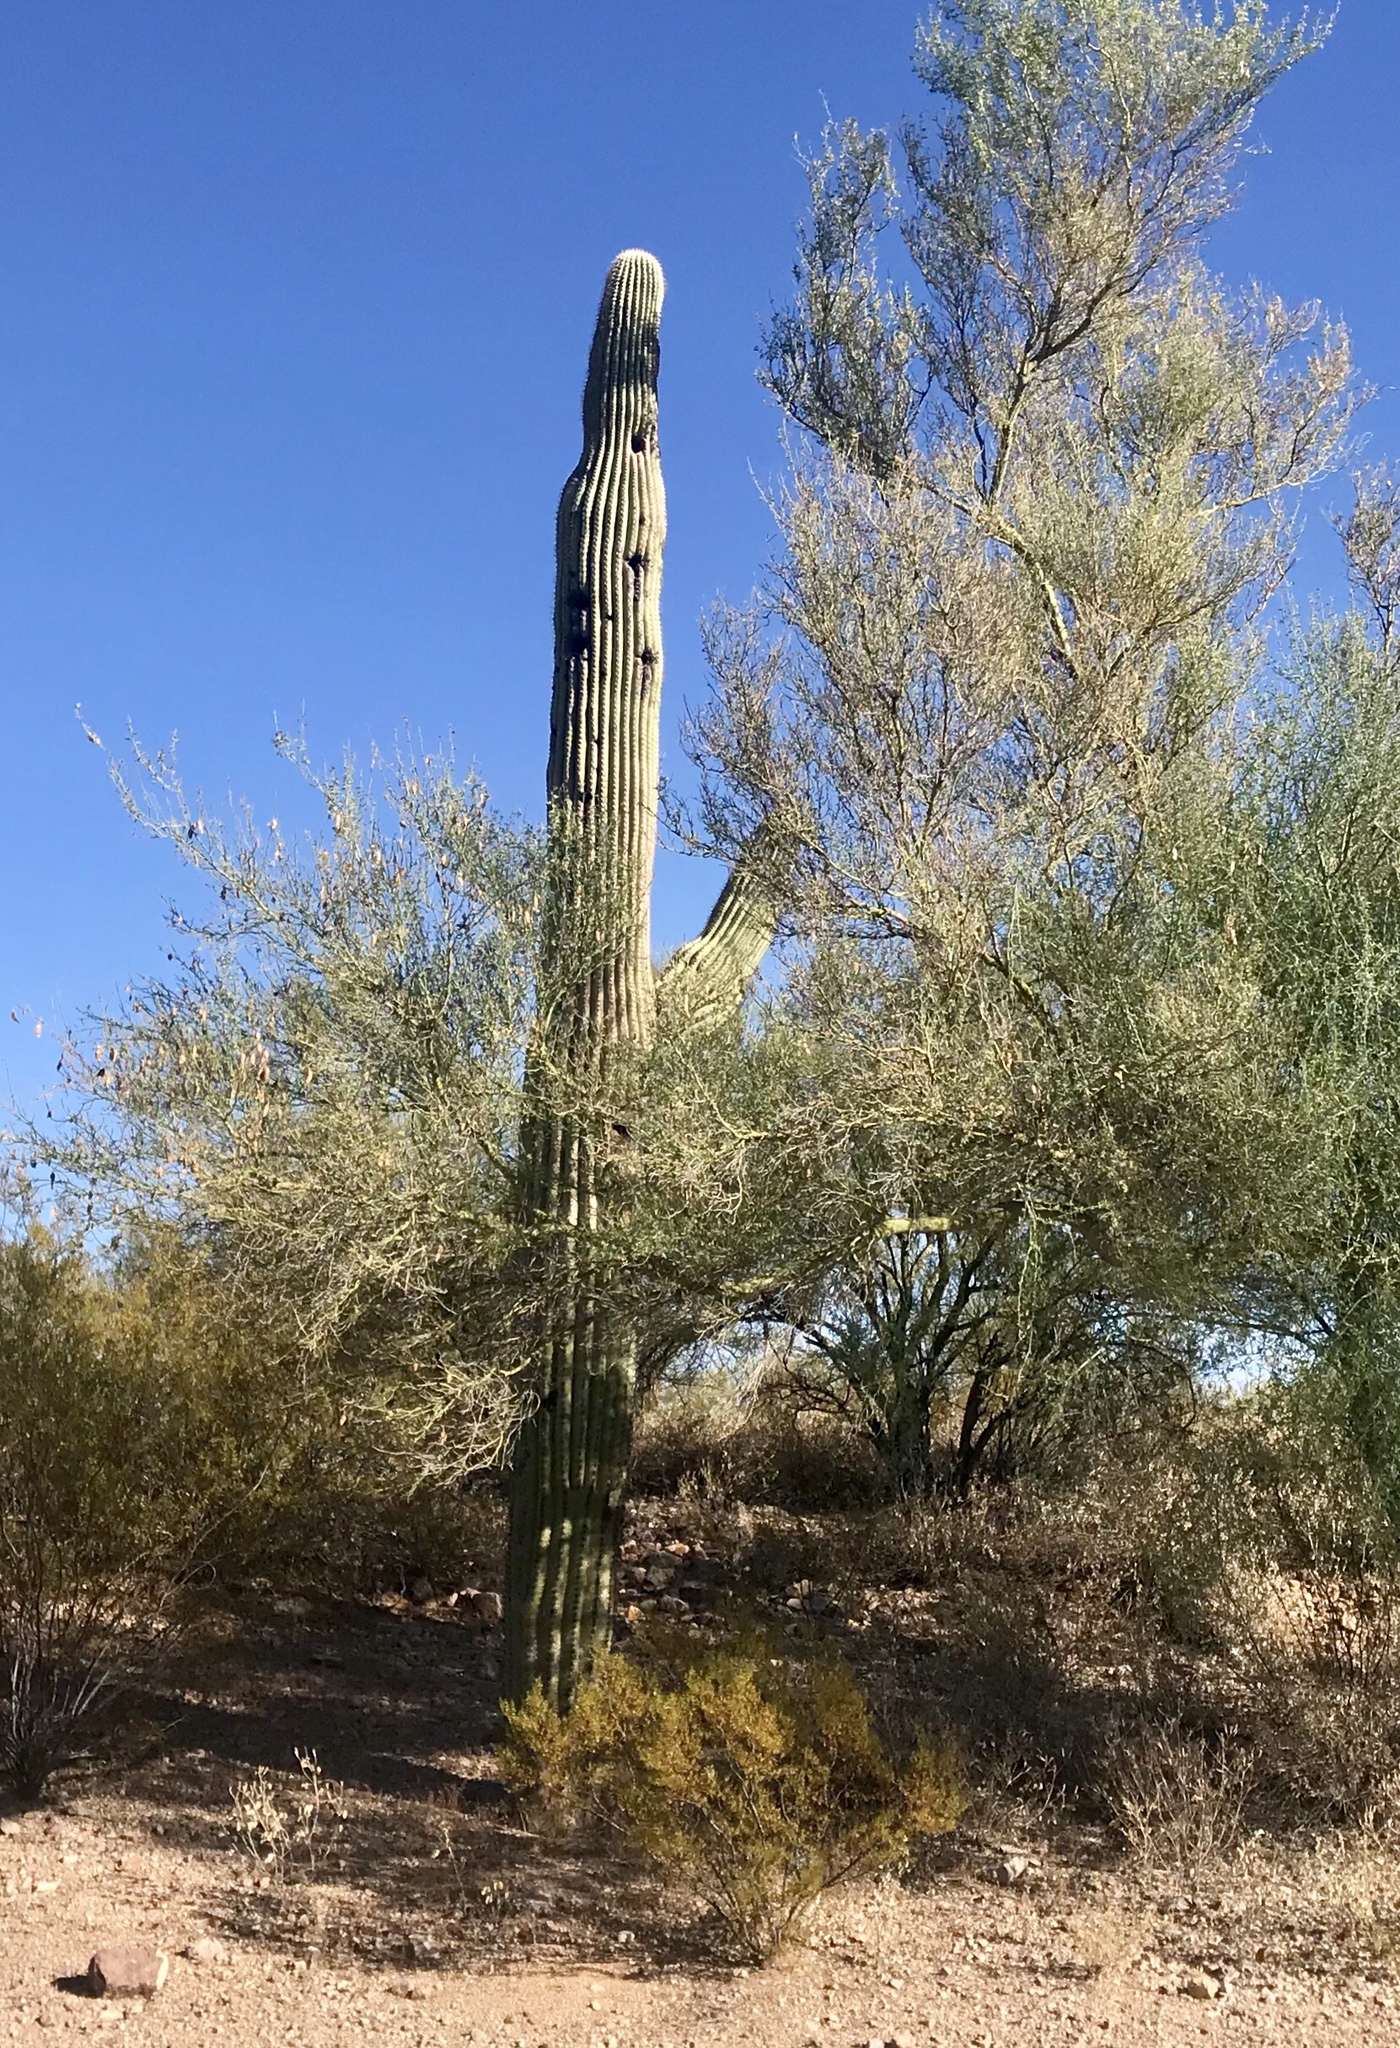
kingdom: Plantae
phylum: Tracheophyta
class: Magnoliopsida
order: Caryophyllales
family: Cactaceae
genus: Carnegiea
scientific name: Carnegiea gigantea
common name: Saguaro
